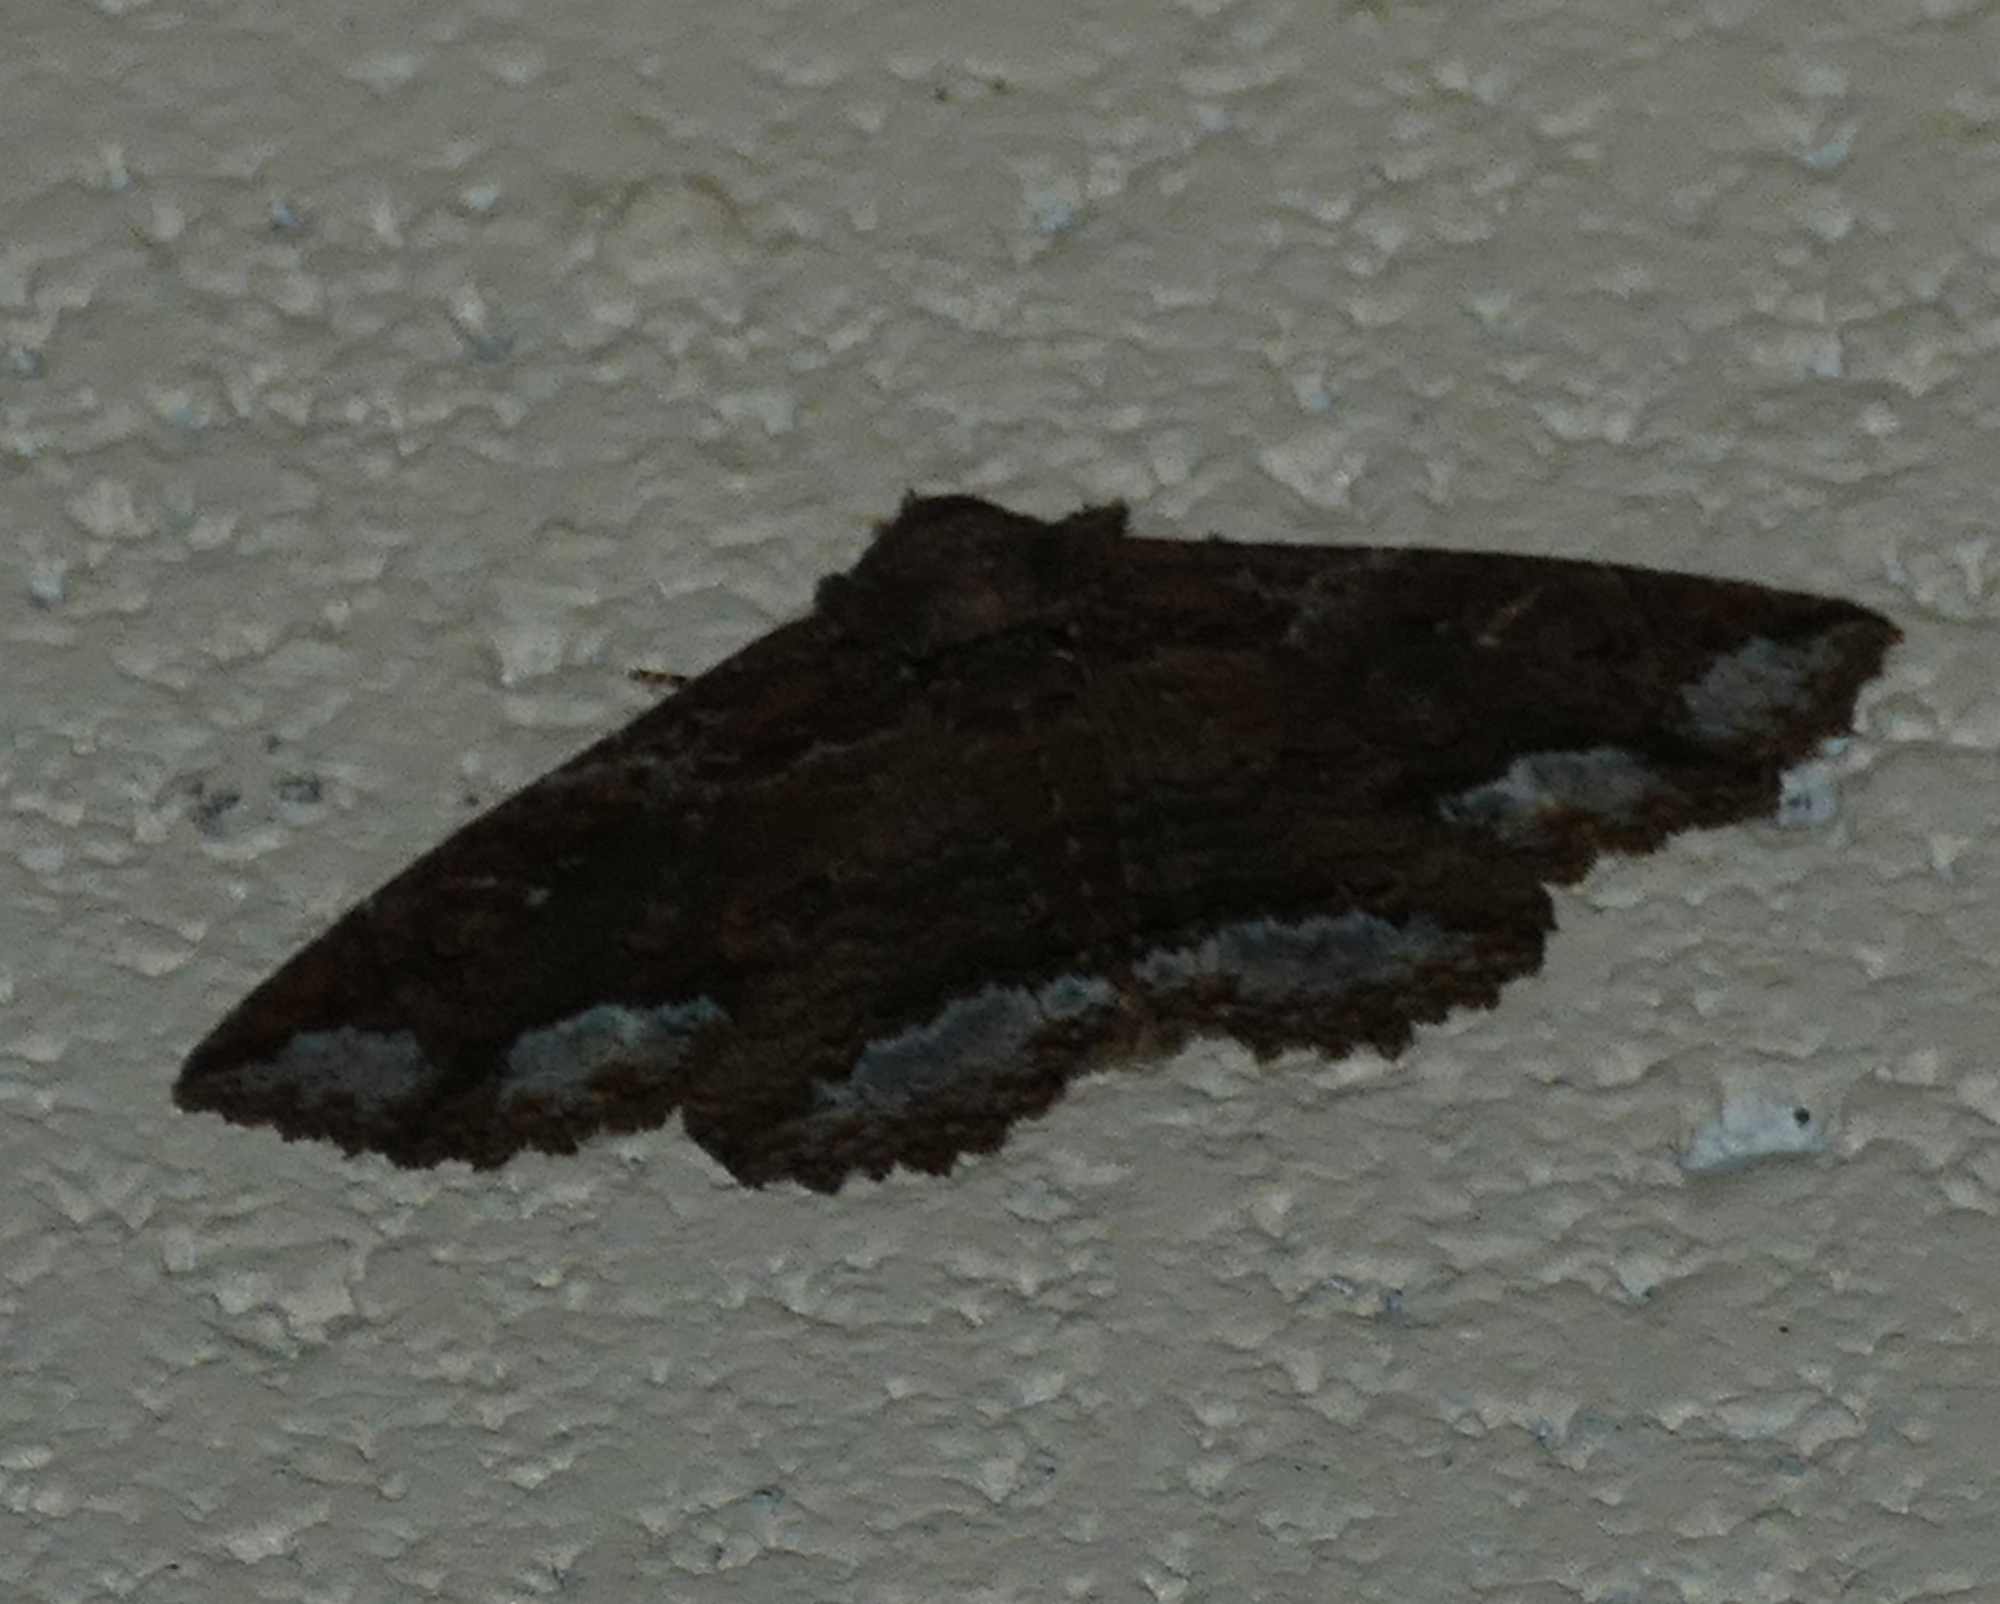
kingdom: Animalia
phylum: Arthropoda
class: Insecta
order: Lepidoptera
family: Erebidae
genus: Zale
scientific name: Zale lunata
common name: Lunate zale moth
